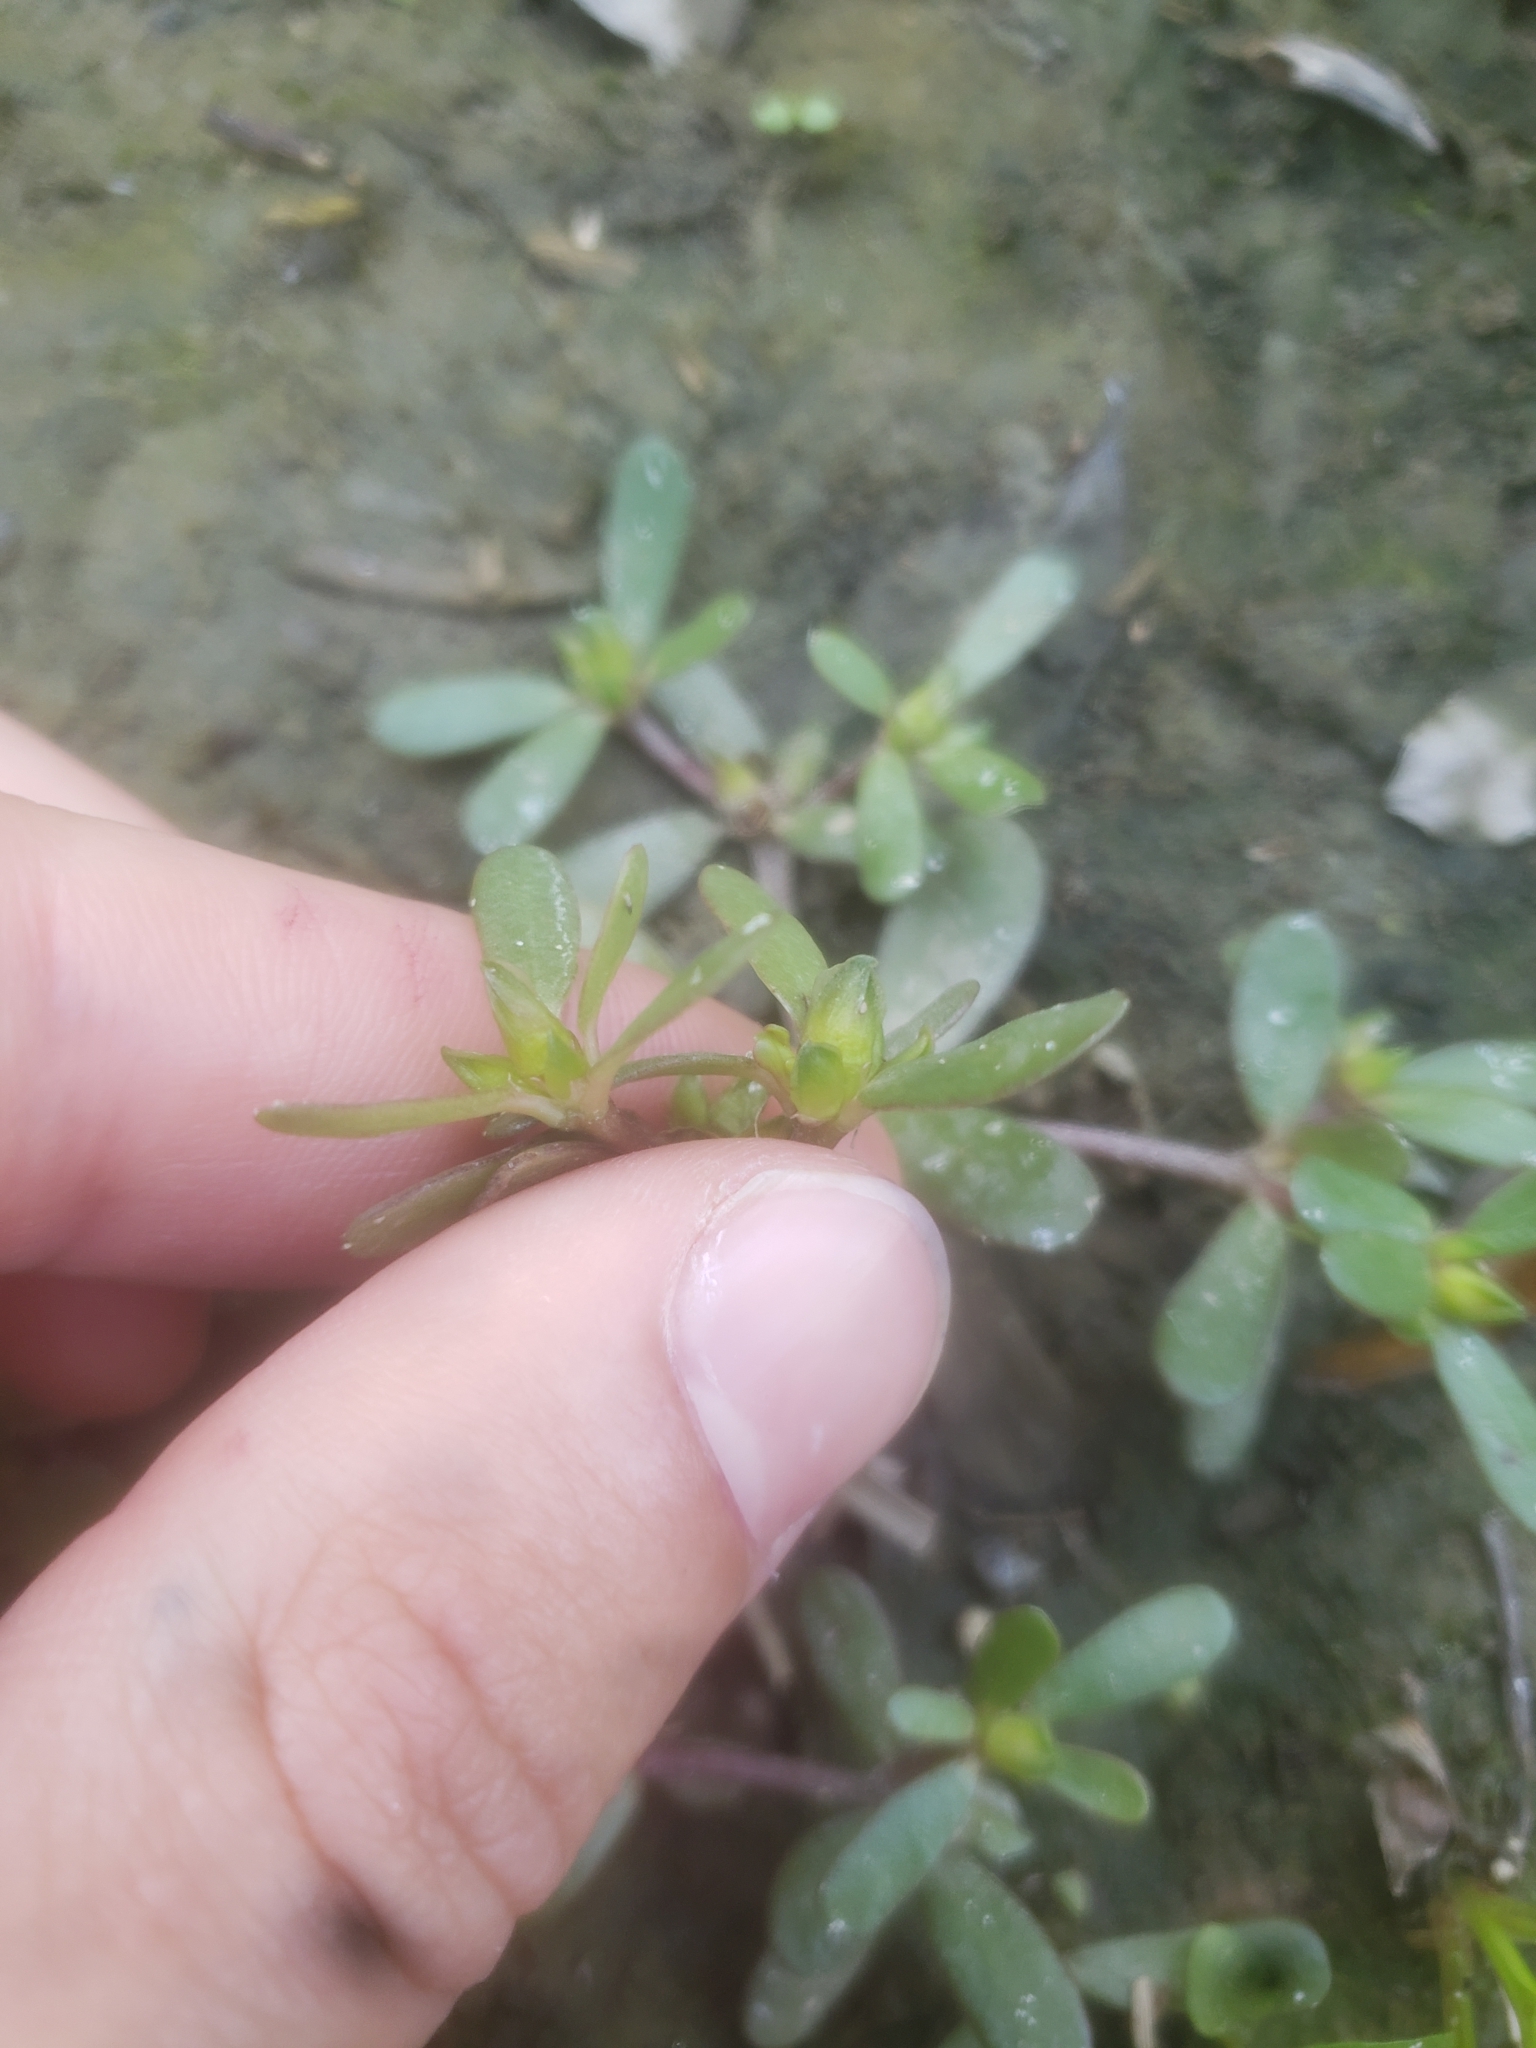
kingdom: Plantae
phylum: Tracheophyta
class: Magnoliopsida
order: Caryophyllales
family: Portulacaceae
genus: Portulaca
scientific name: Portulaca oleracea
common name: Common purslane
